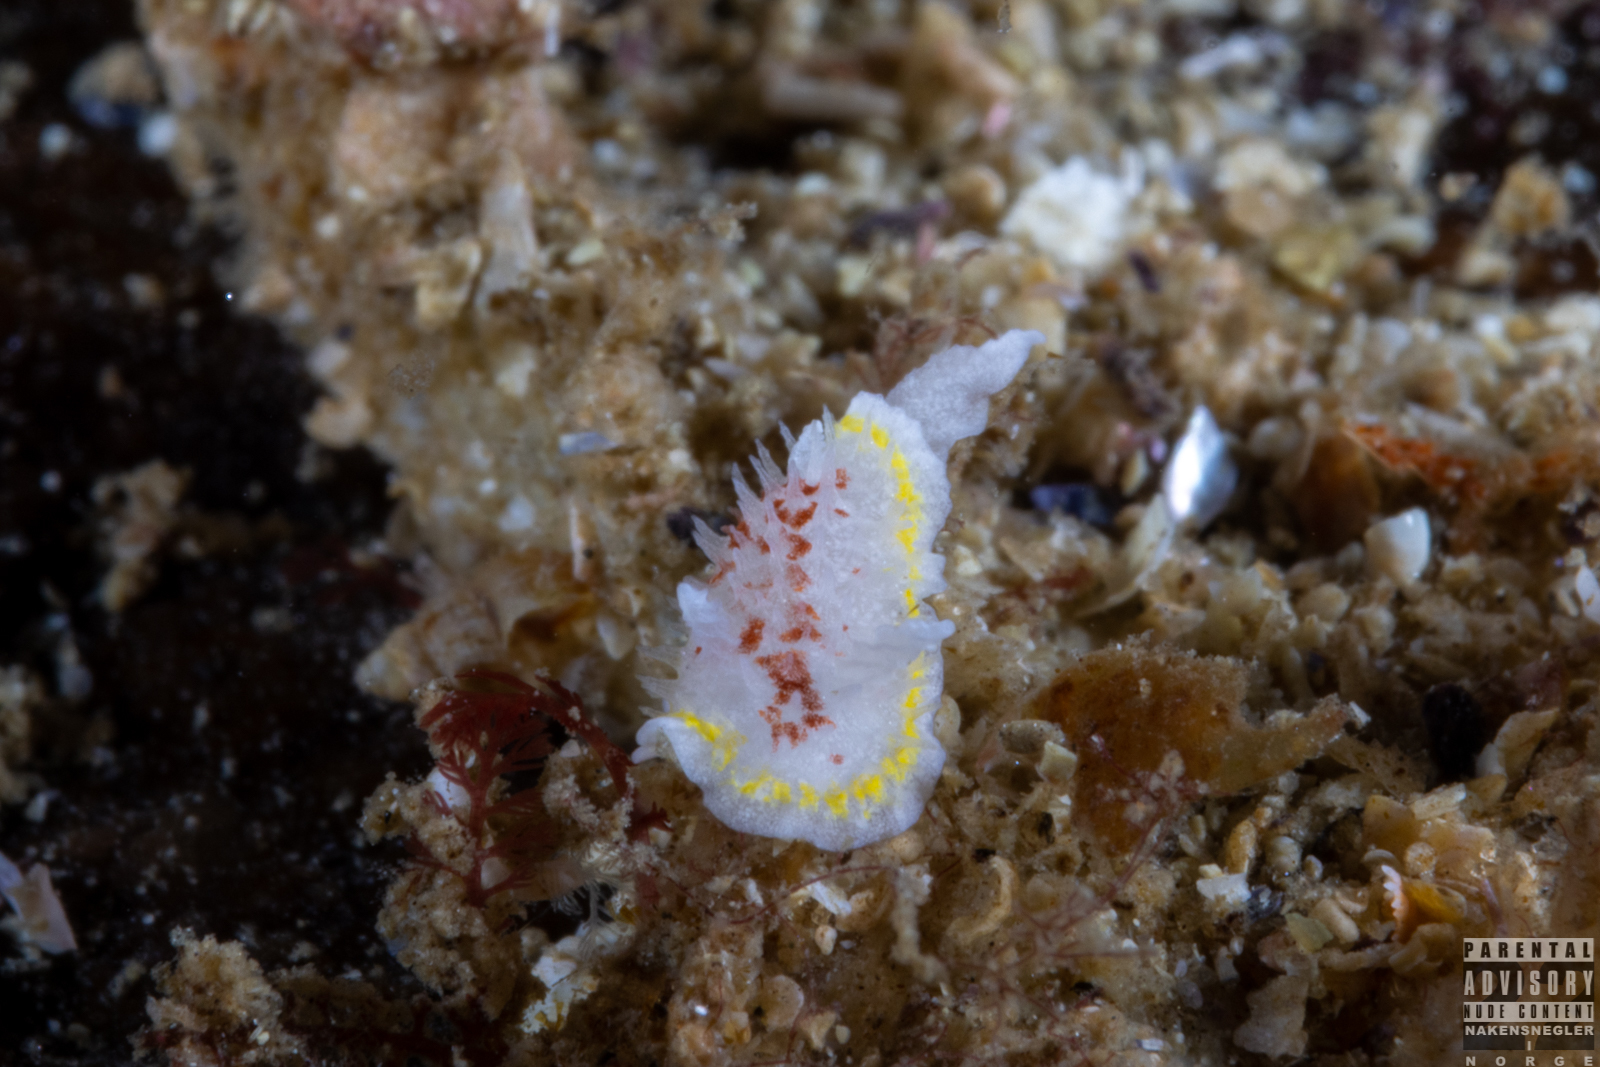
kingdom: Animalia
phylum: Mollusca
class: Gastropoda
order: Nudibranchia
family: Calycidorididae
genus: Diaphorodoris
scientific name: Diaphorodoris luteocincta
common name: Fried egg nudibranch
